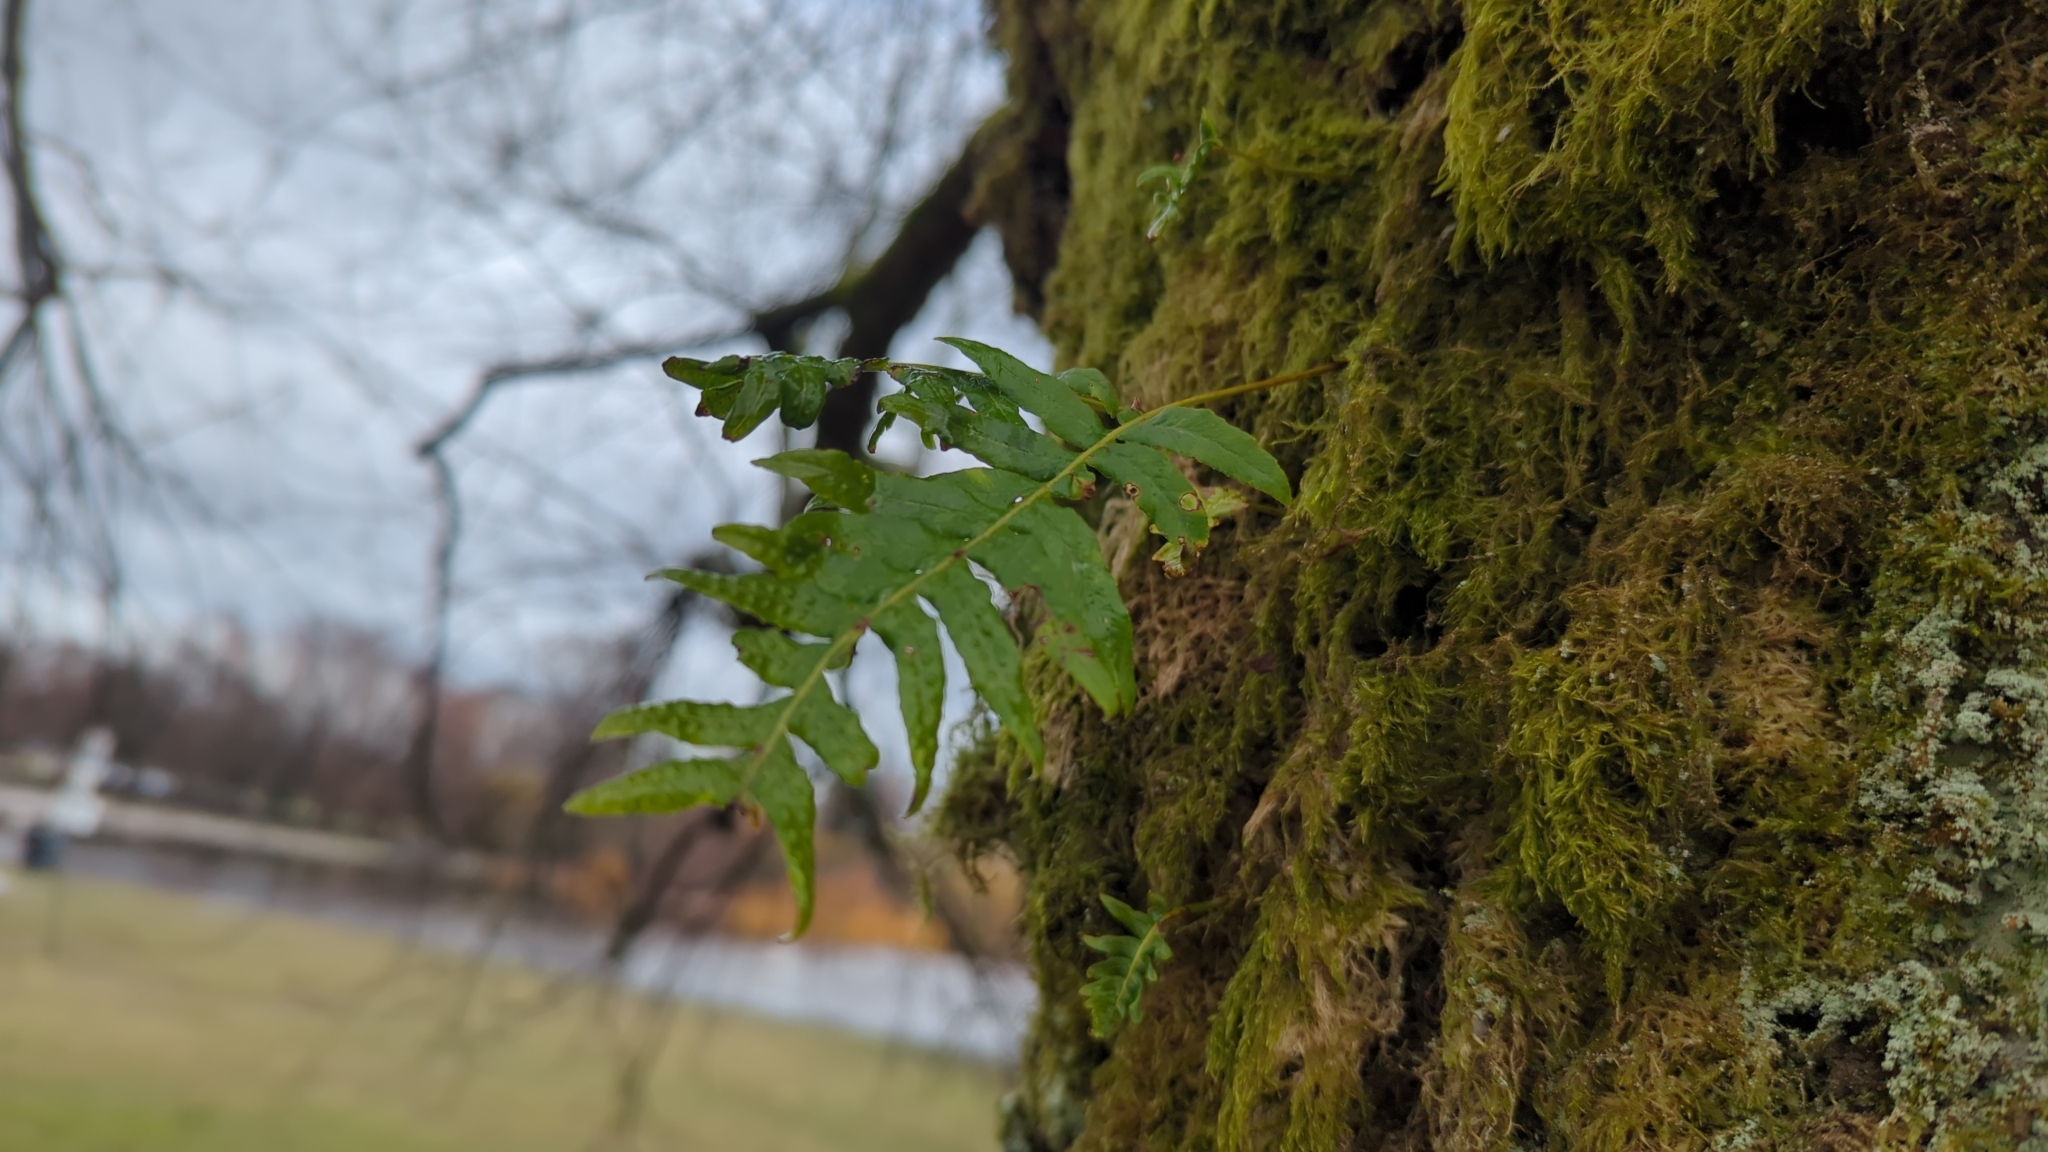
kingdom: Plantae
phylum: Tracheophyta
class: Polypodiopsida
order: Polypodiales
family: Polypodiaceae
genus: Polypodium
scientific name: Polypodium glycyrrhiza
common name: Licorice fern
